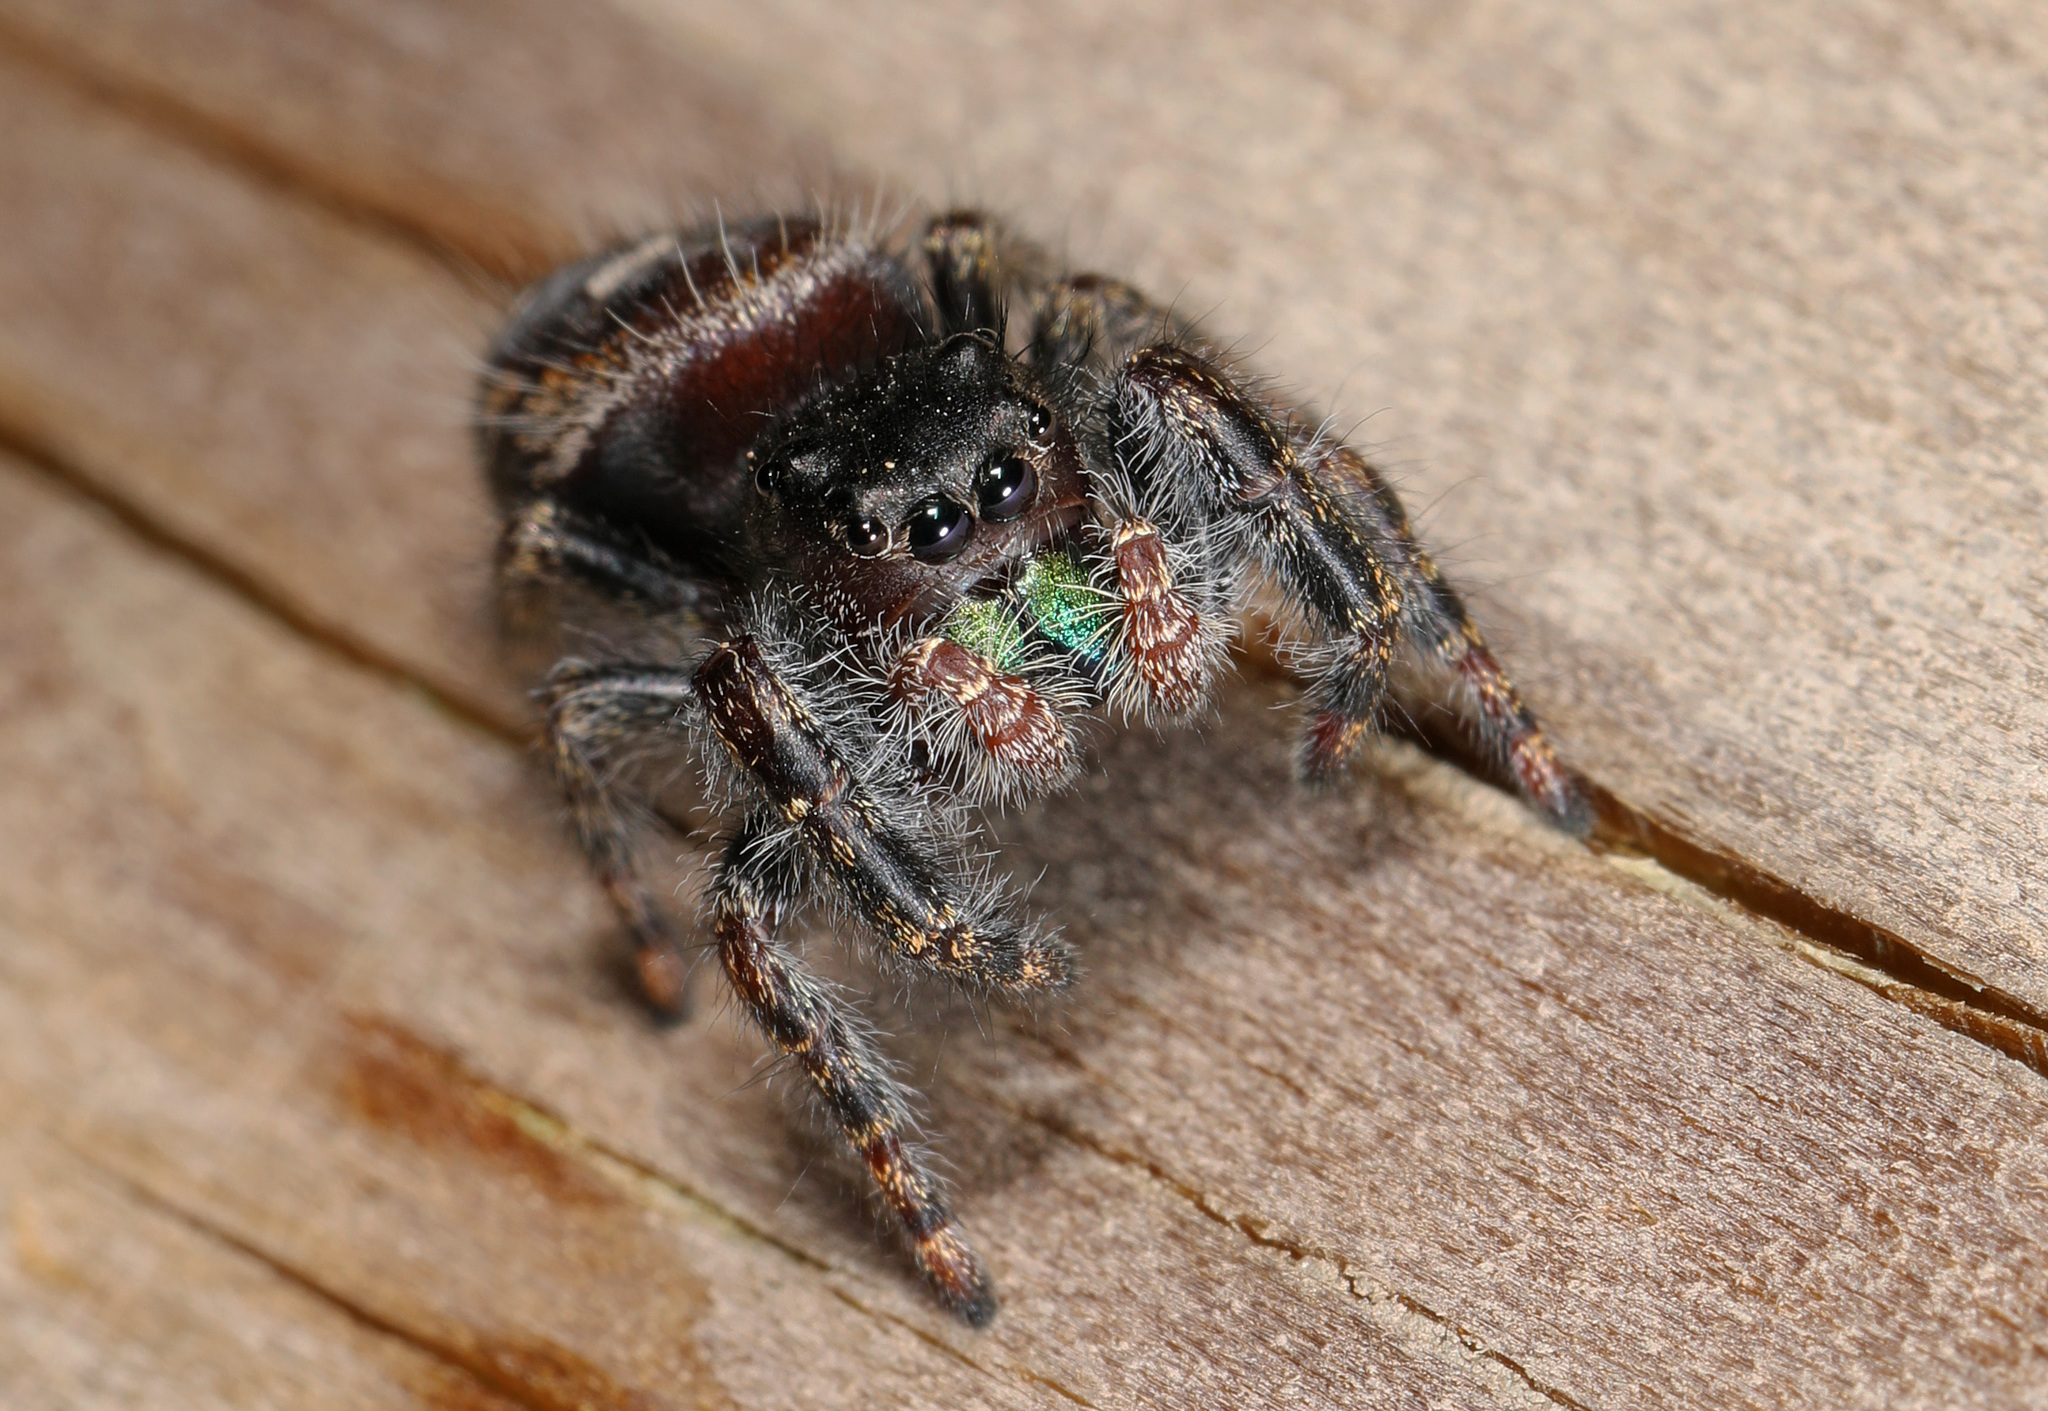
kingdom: Animalia
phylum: Arthropoda
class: Arachnida
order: Araneae
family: Salticidae
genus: Phidippus
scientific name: Phidippus audax
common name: Bold jumper
